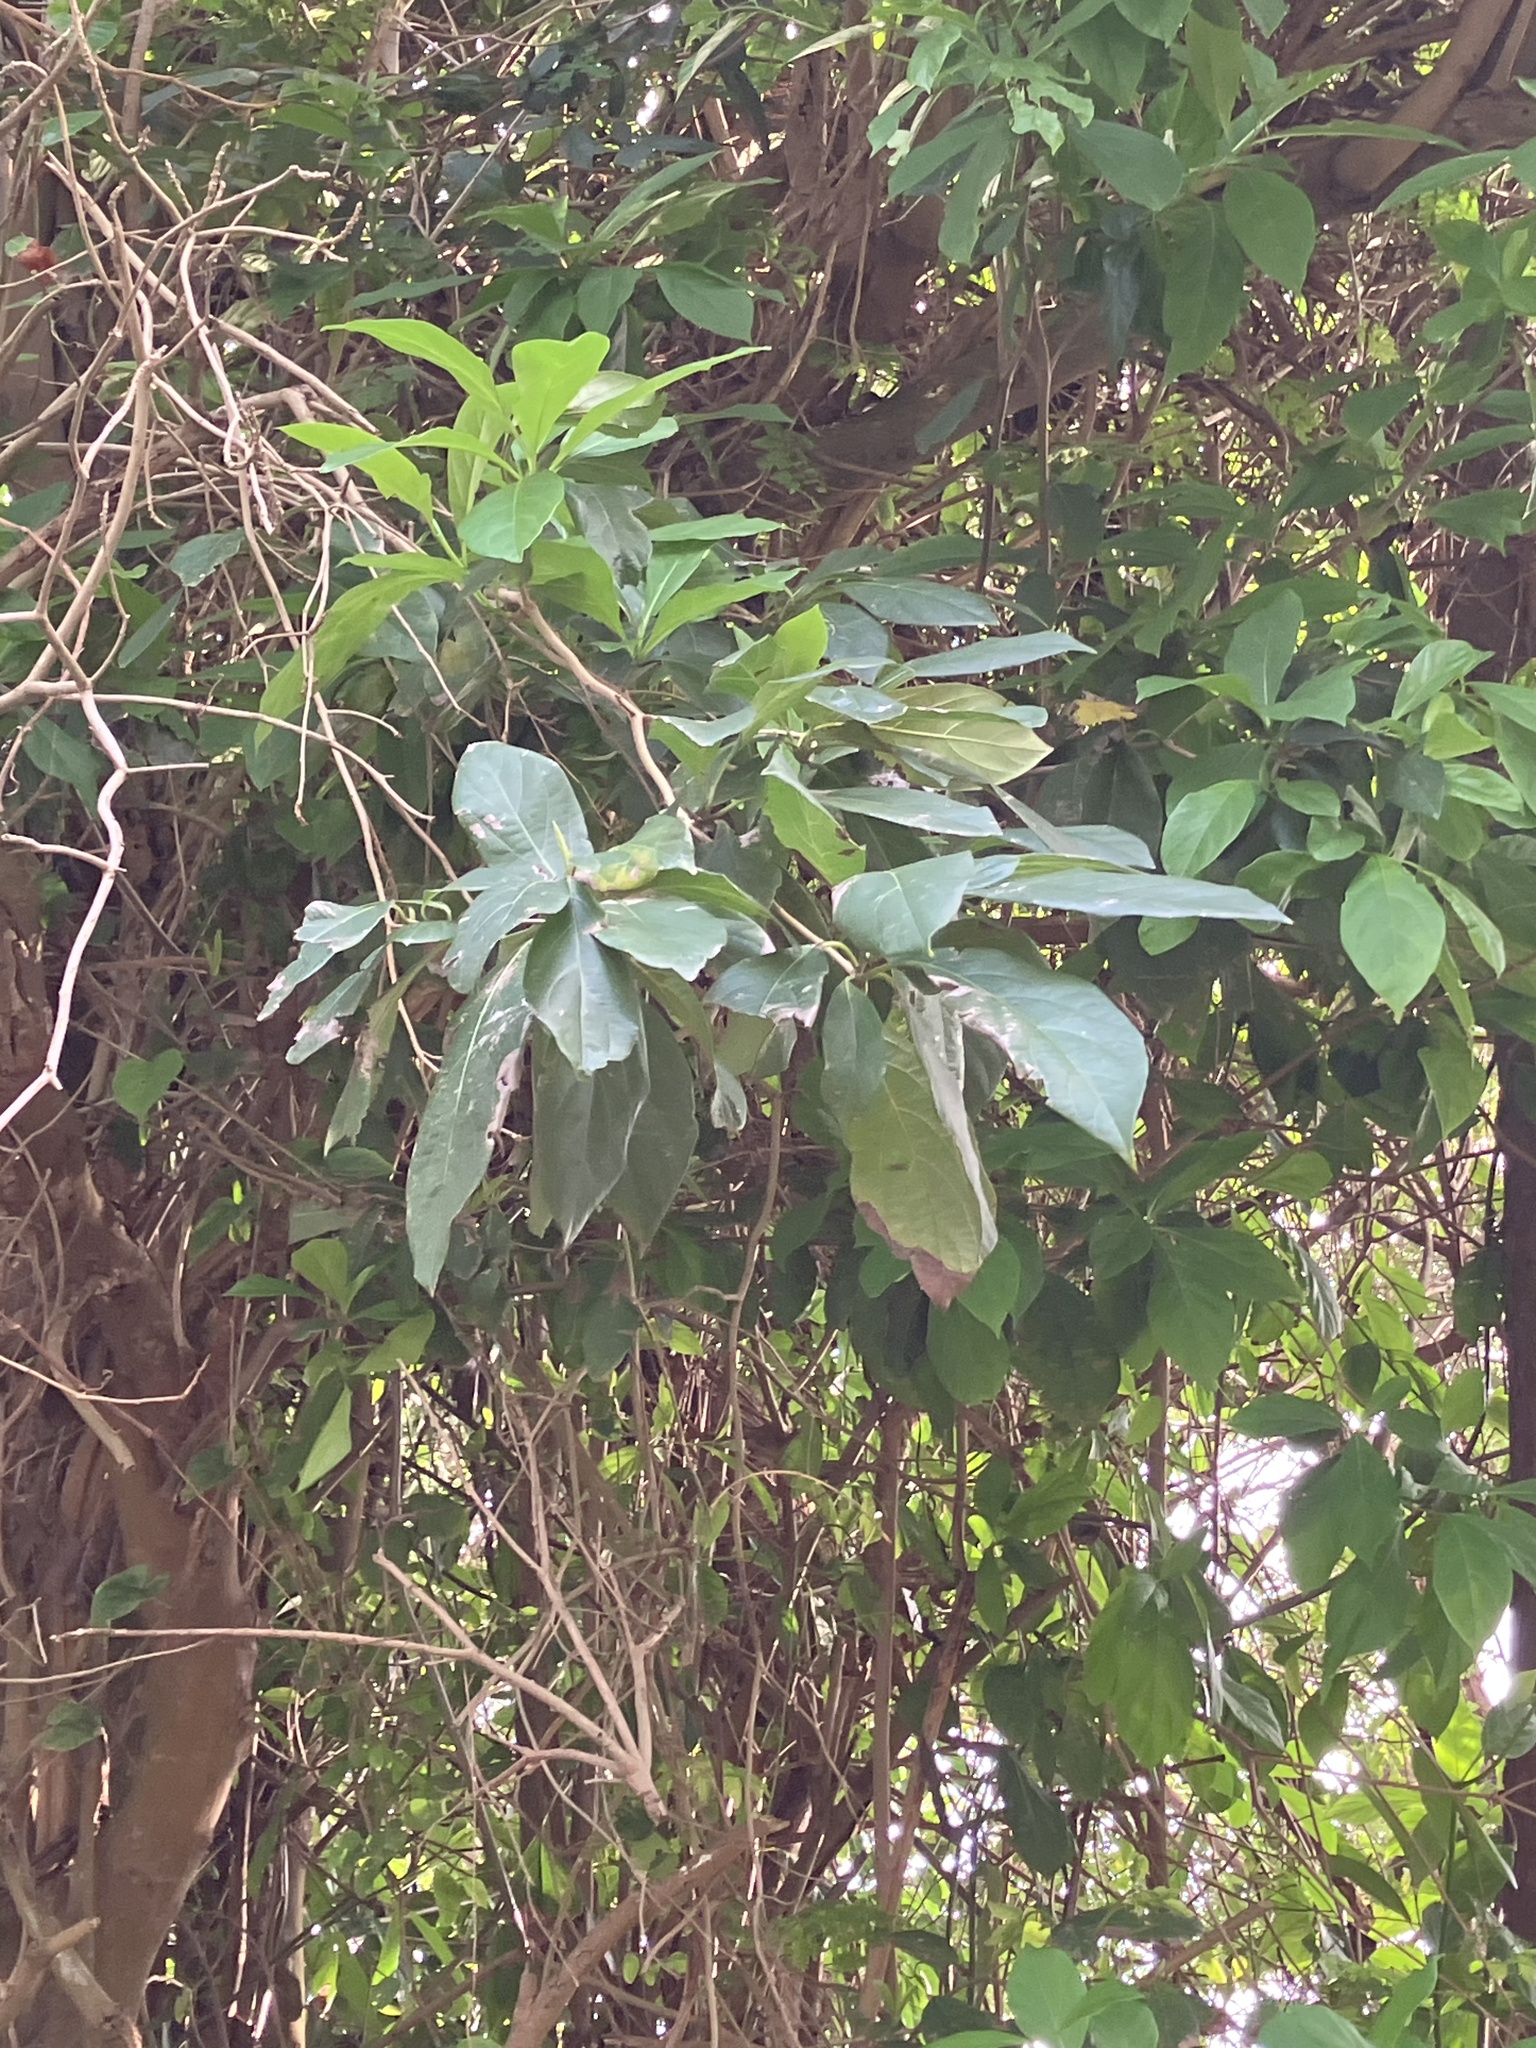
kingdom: Plantae
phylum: Tracheophyta
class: Magnoliopsida
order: Boraginales
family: Cordiaceae
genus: Cordia
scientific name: Cordia collococca
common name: Clammy cherry
